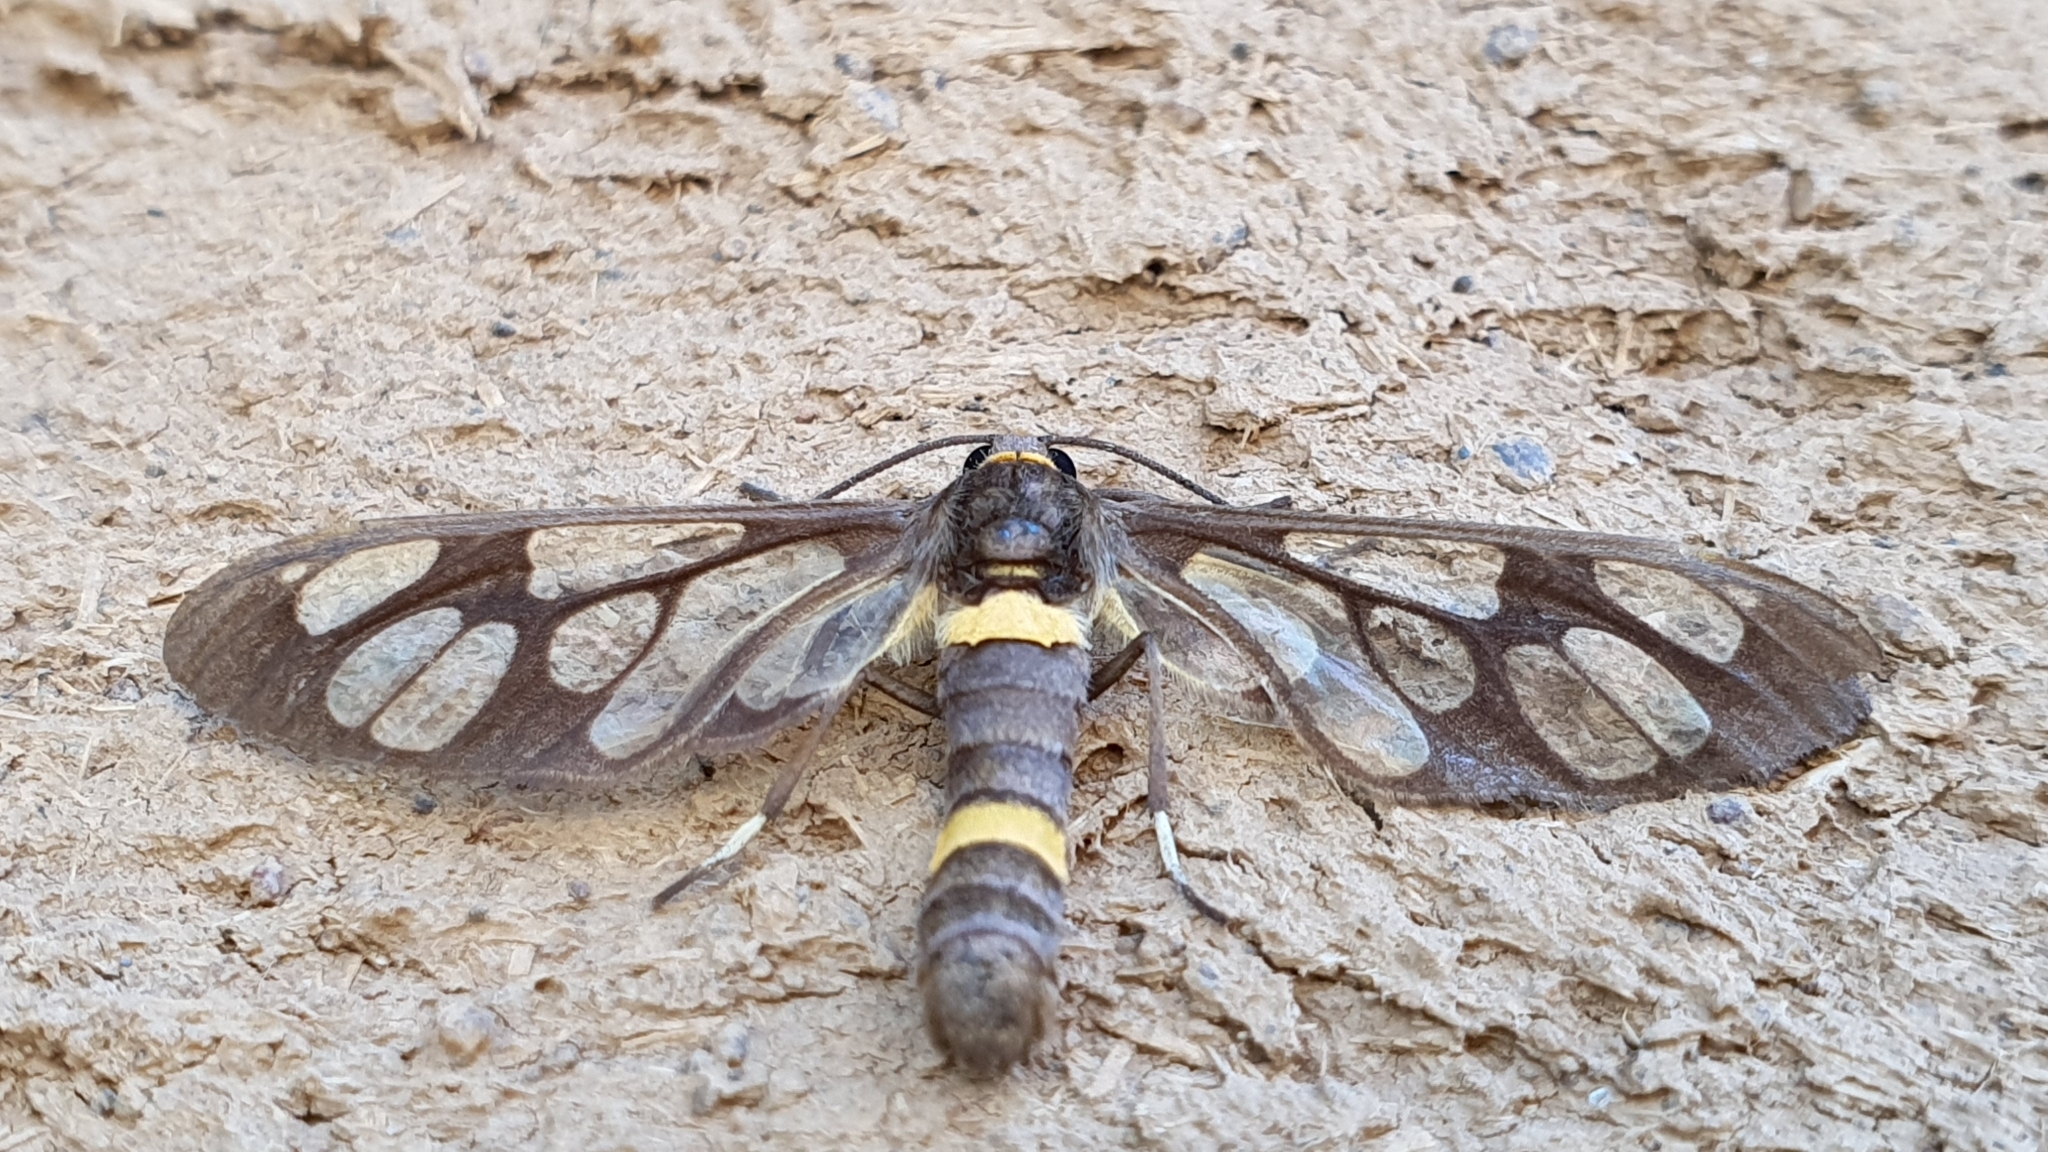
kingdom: Animalia
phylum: Arthropoda
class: Insecta
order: Lepidoptera
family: Erebidae
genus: Syntomoides
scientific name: Syntomoides imaon
